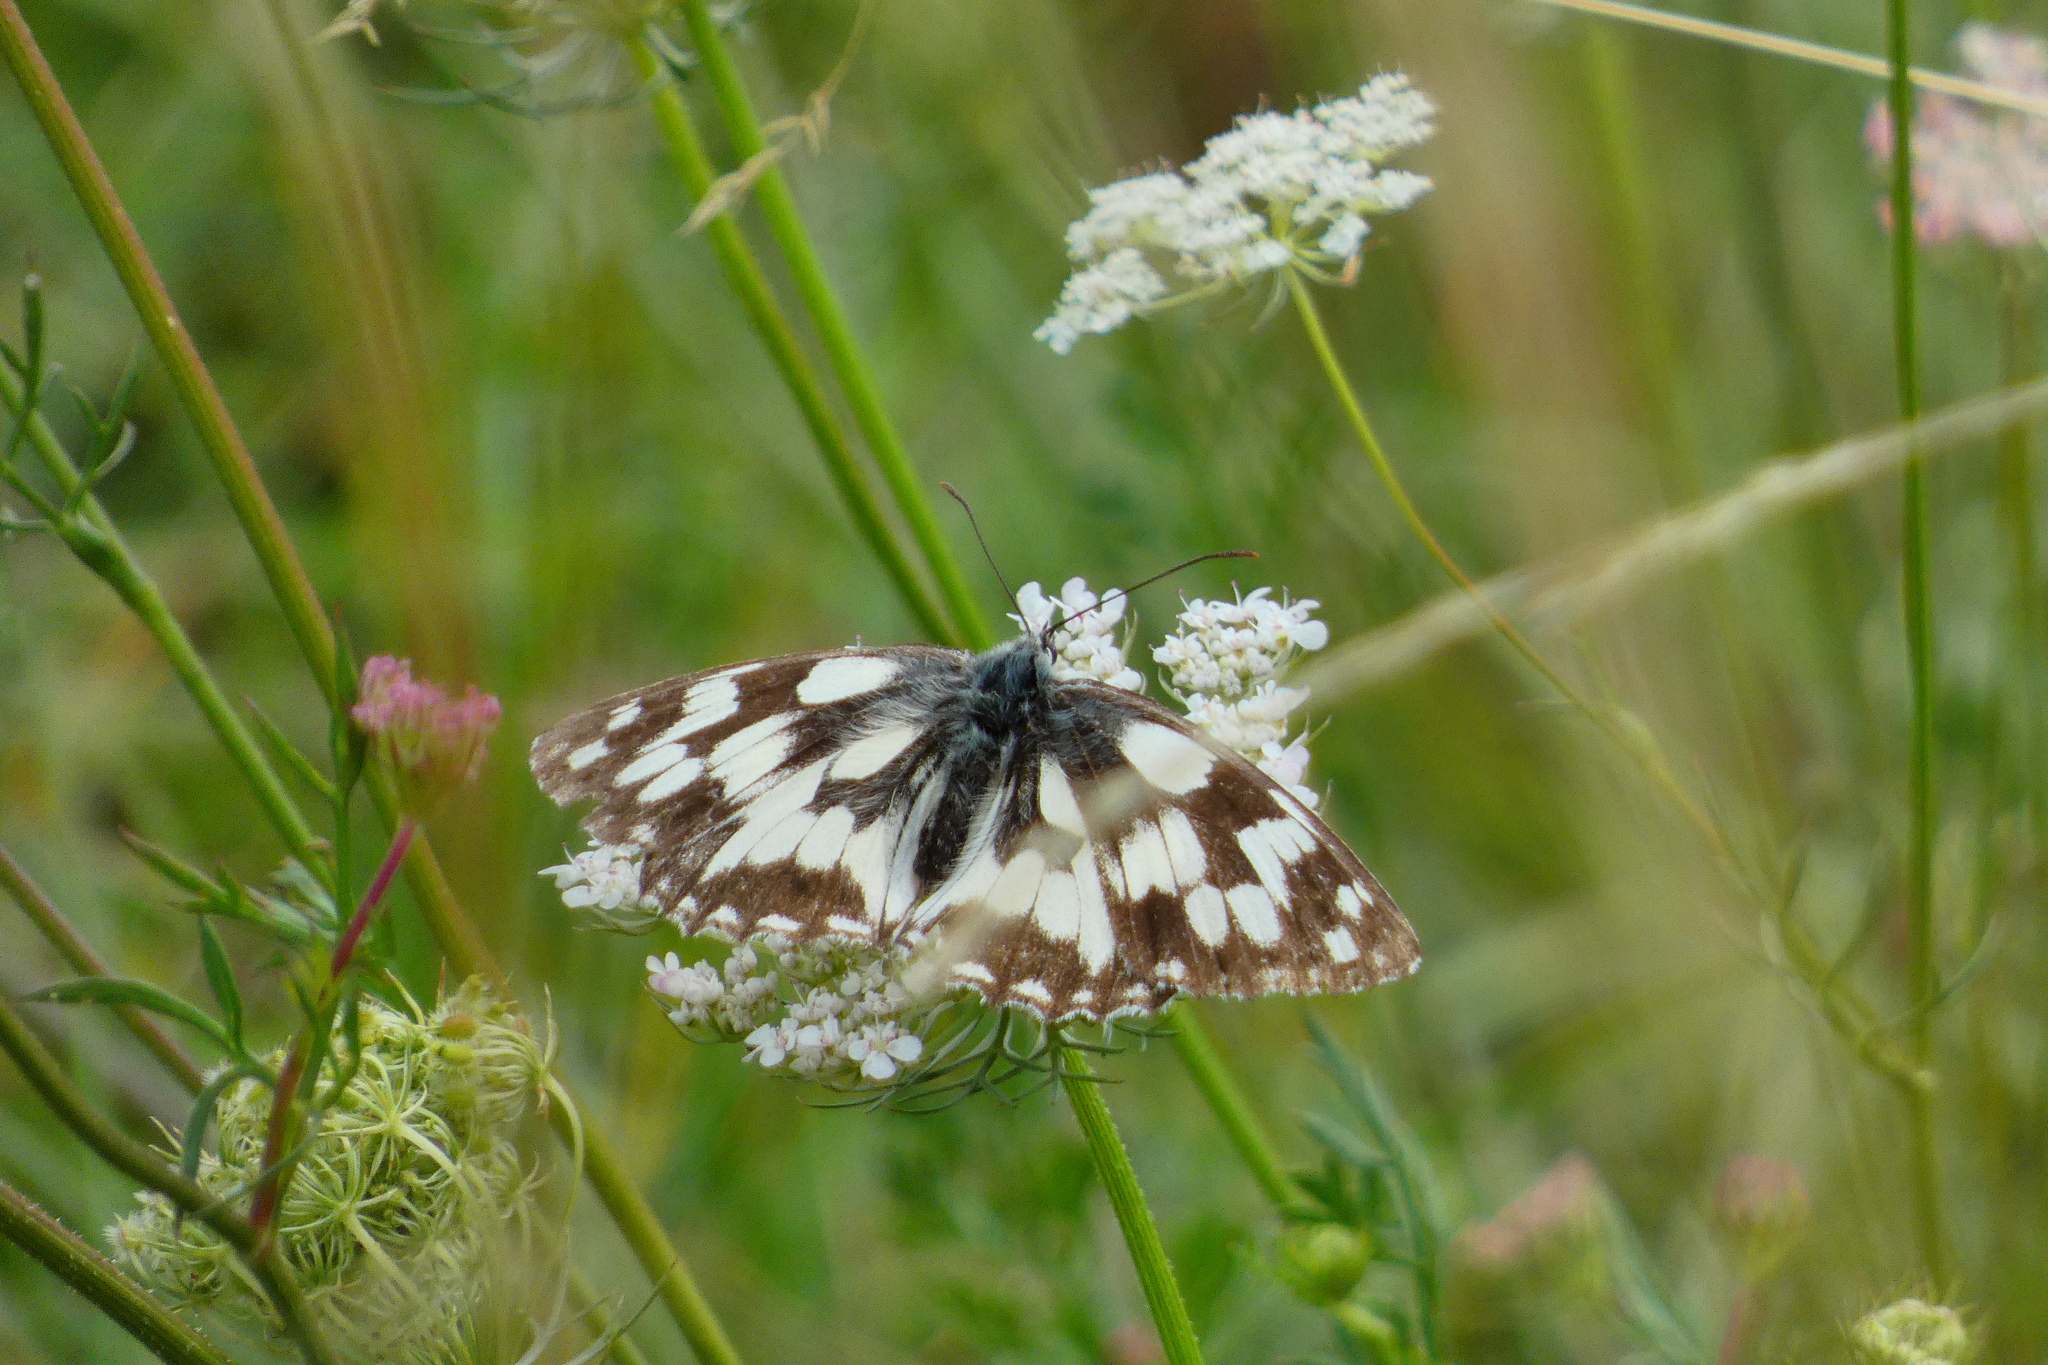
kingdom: Animalia
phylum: Arthropoda
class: Insecta
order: Lepidoptera
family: Nymphalidae
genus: Melanargia
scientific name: Melanargia galathea
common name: Marbled white
